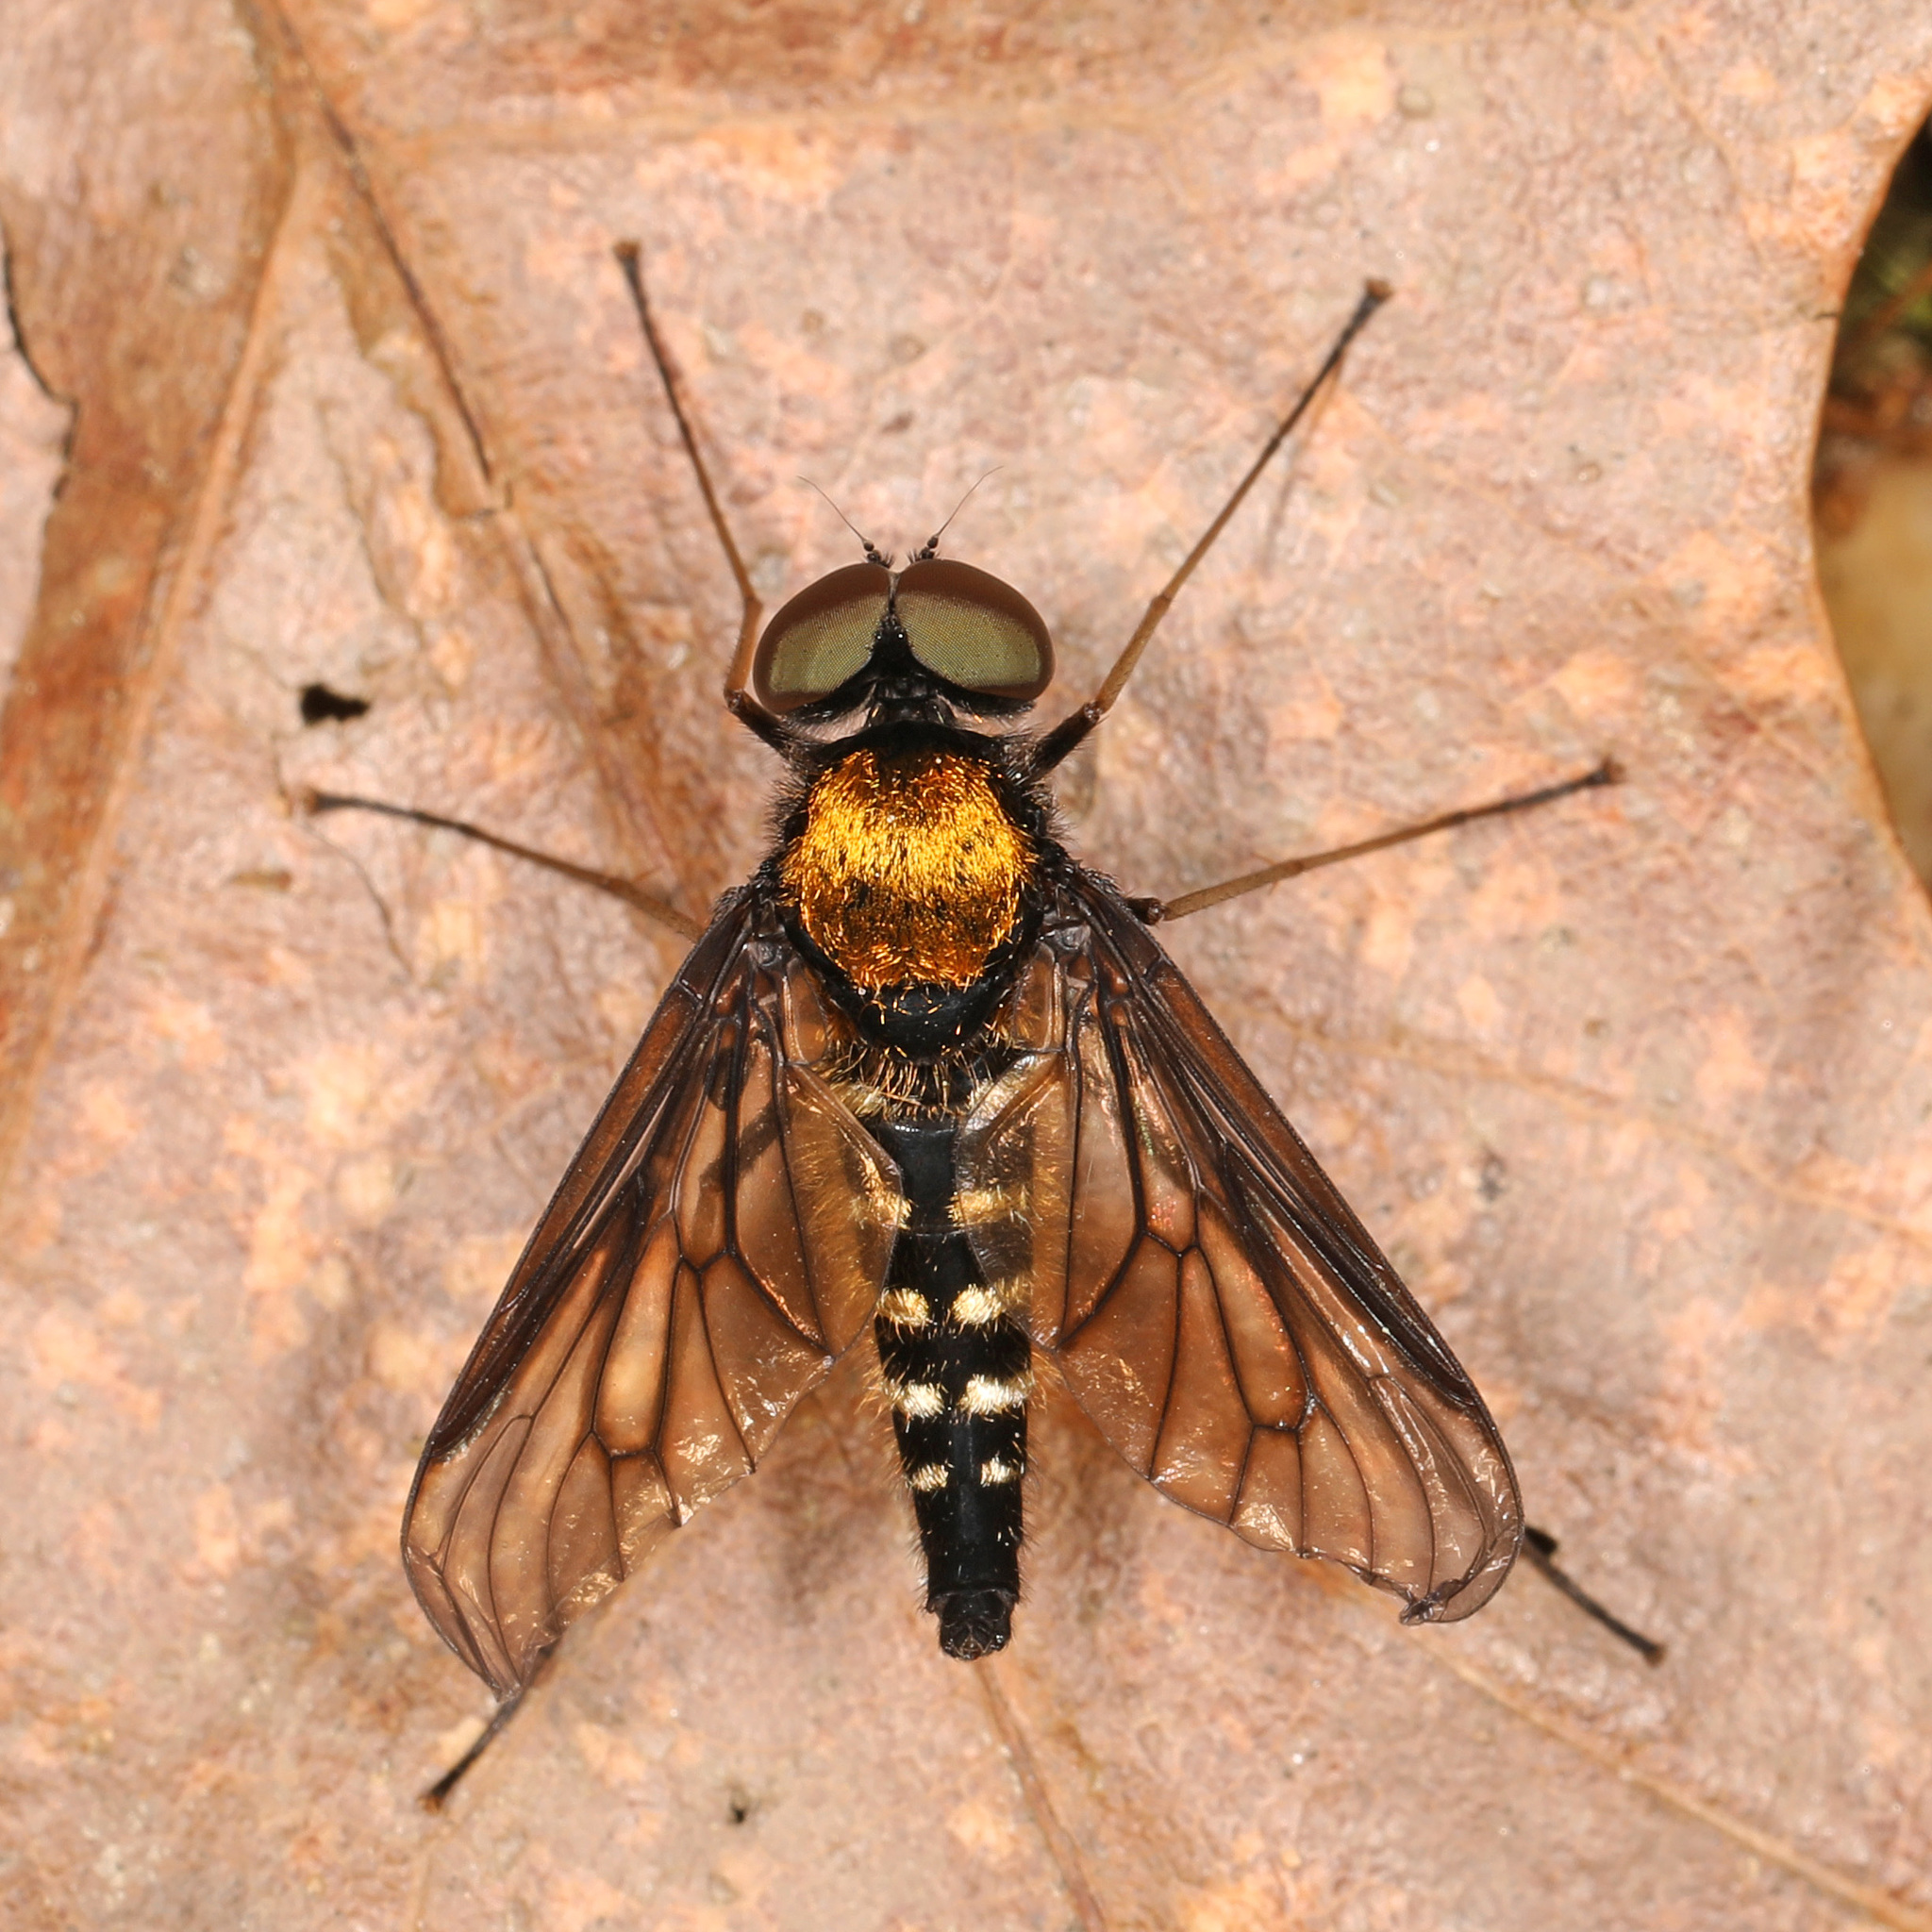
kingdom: Animalia
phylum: Arthropoda
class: Insecta
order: Diptera
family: Rhagionidae
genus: Chrysopilus
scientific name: Chrysopilus thoracicus
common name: Golden-backed snipe fly
